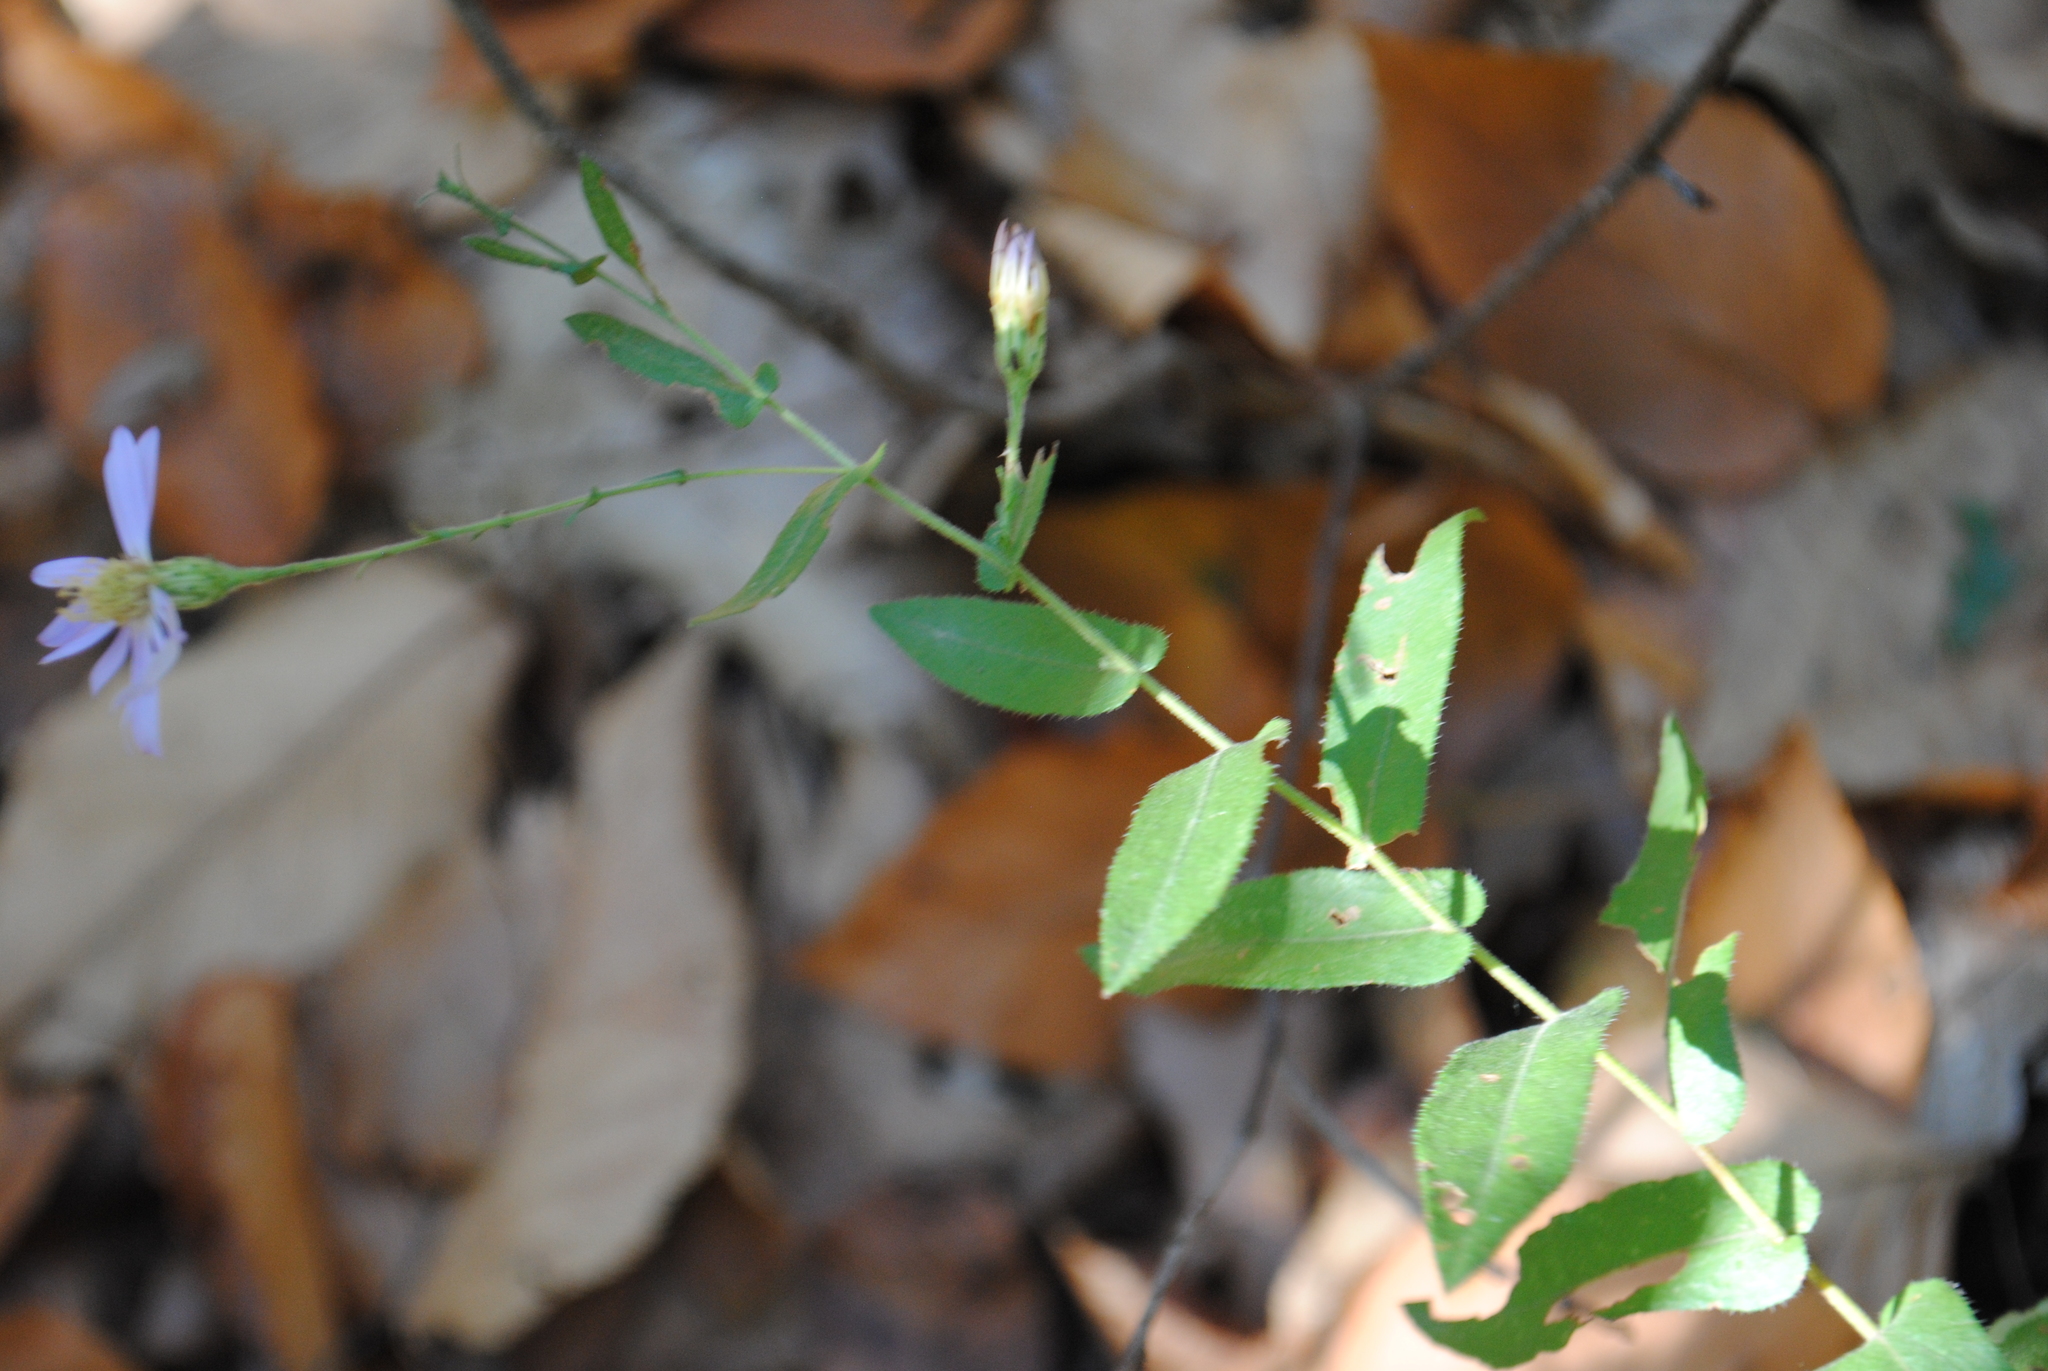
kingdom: Plantae
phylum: Tracheophyta
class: Magnoliopsida
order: Asterales
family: Asteraceae
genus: Symphyotrichum
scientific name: Symphyotrichum patens
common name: Late purple aster
